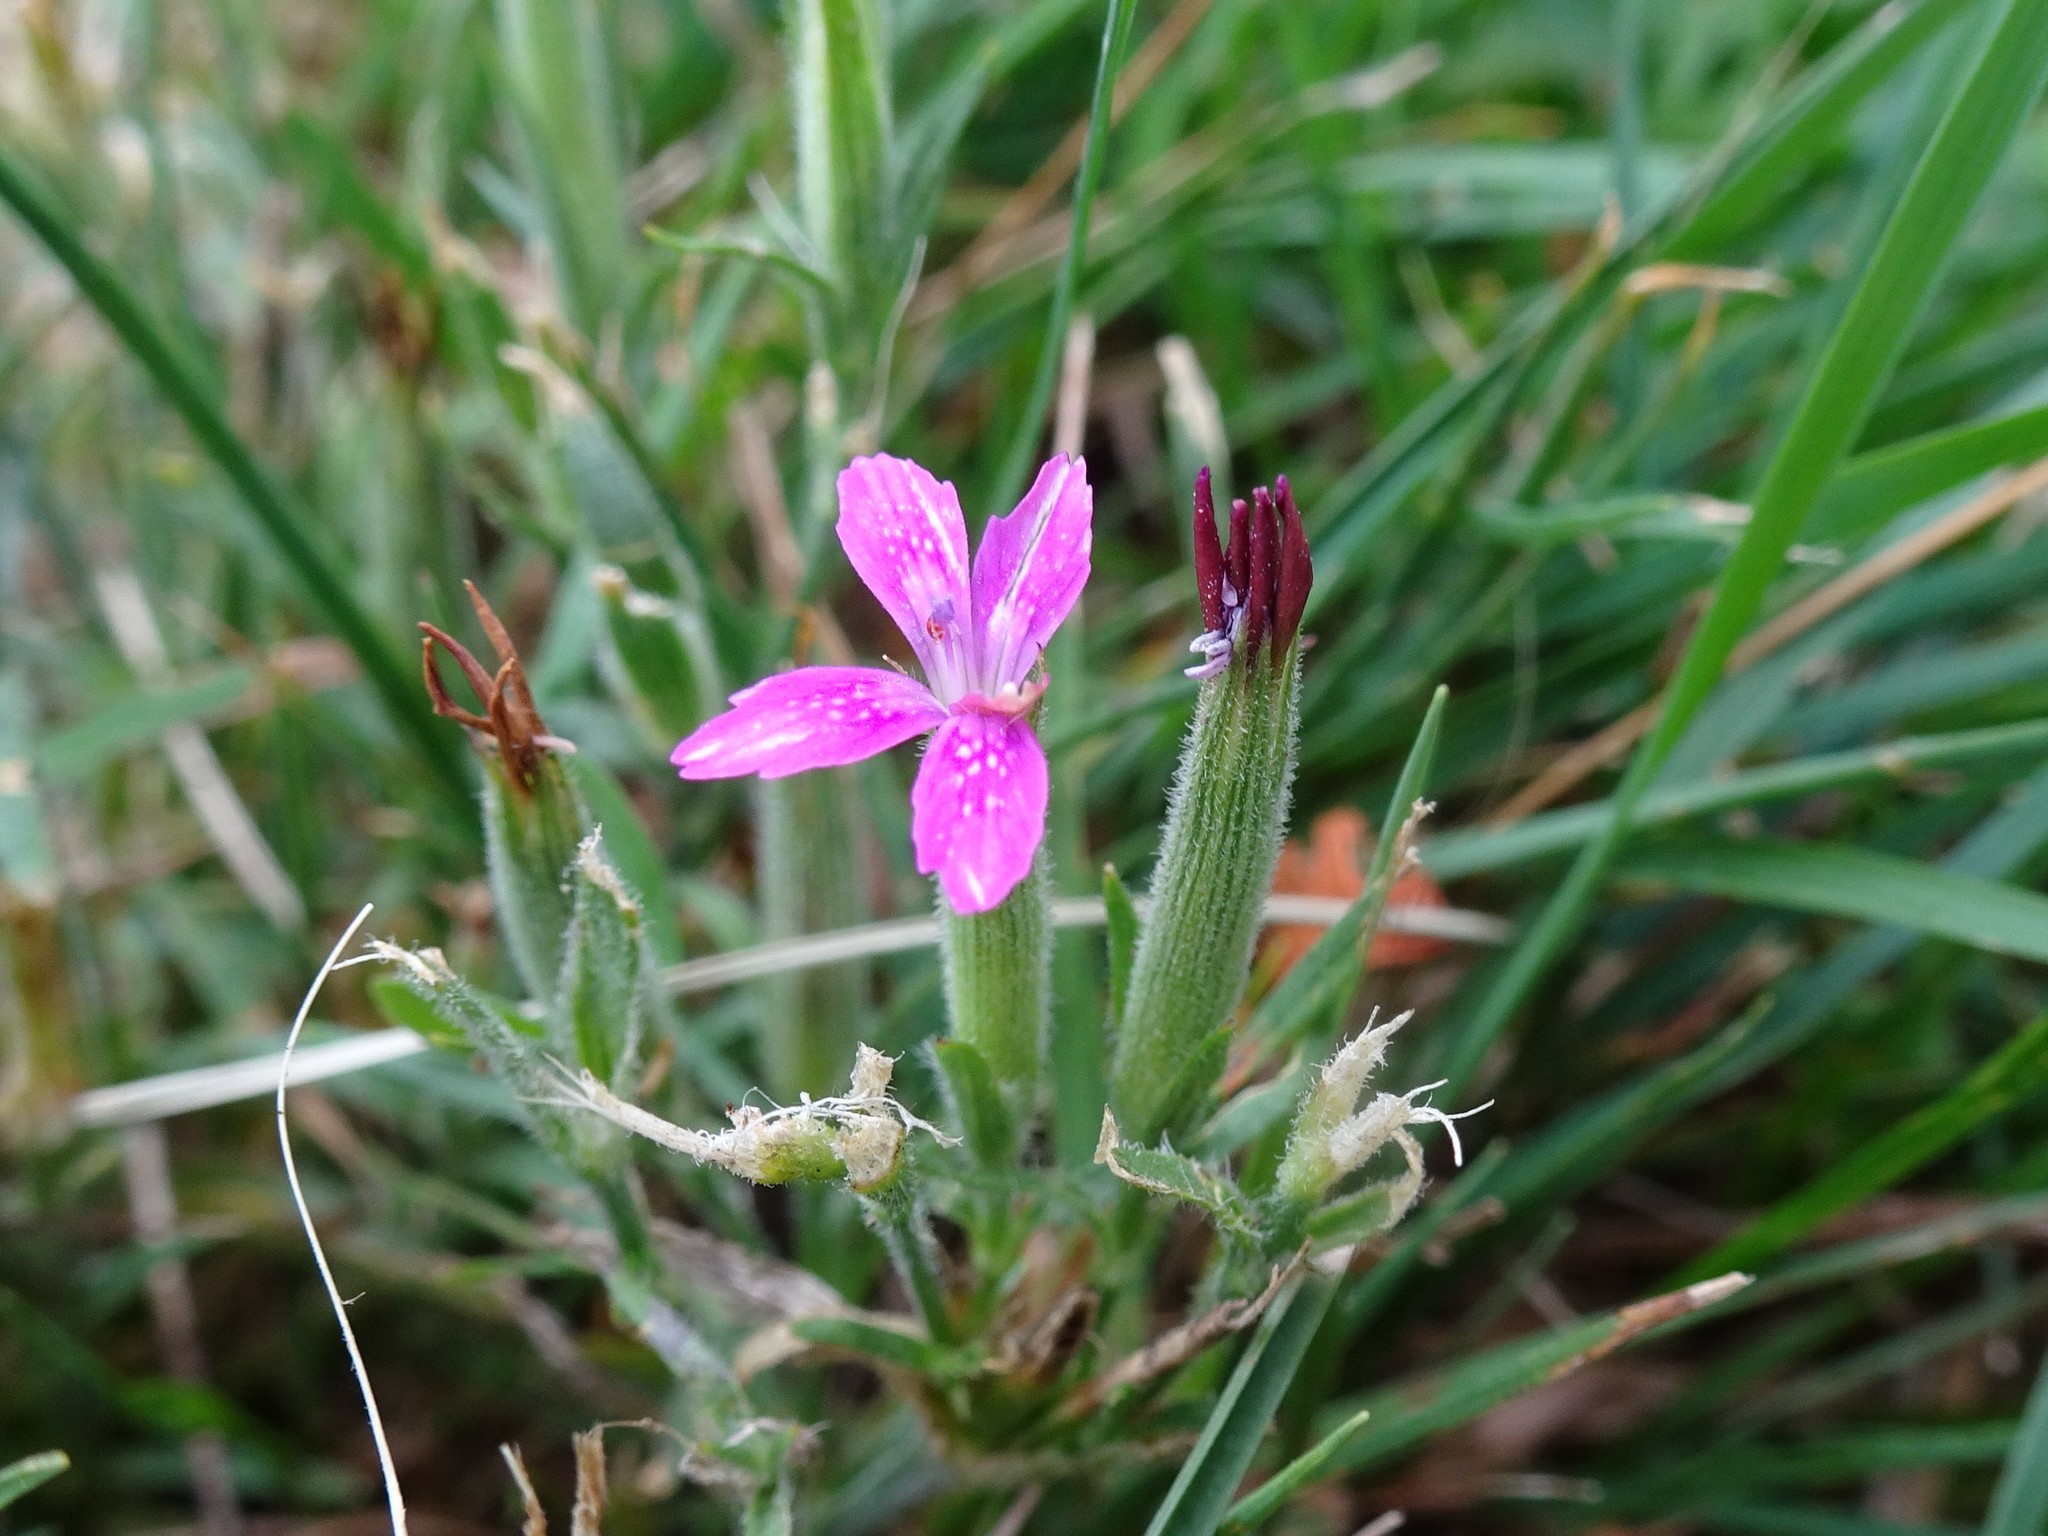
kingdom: Plantae
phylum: Tracheophyta
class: Magnoliopsida
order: Caryophyllales
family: Caryophyllaceae
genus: Dianthus
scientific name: Dianthus armeria
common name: Deptford pink
